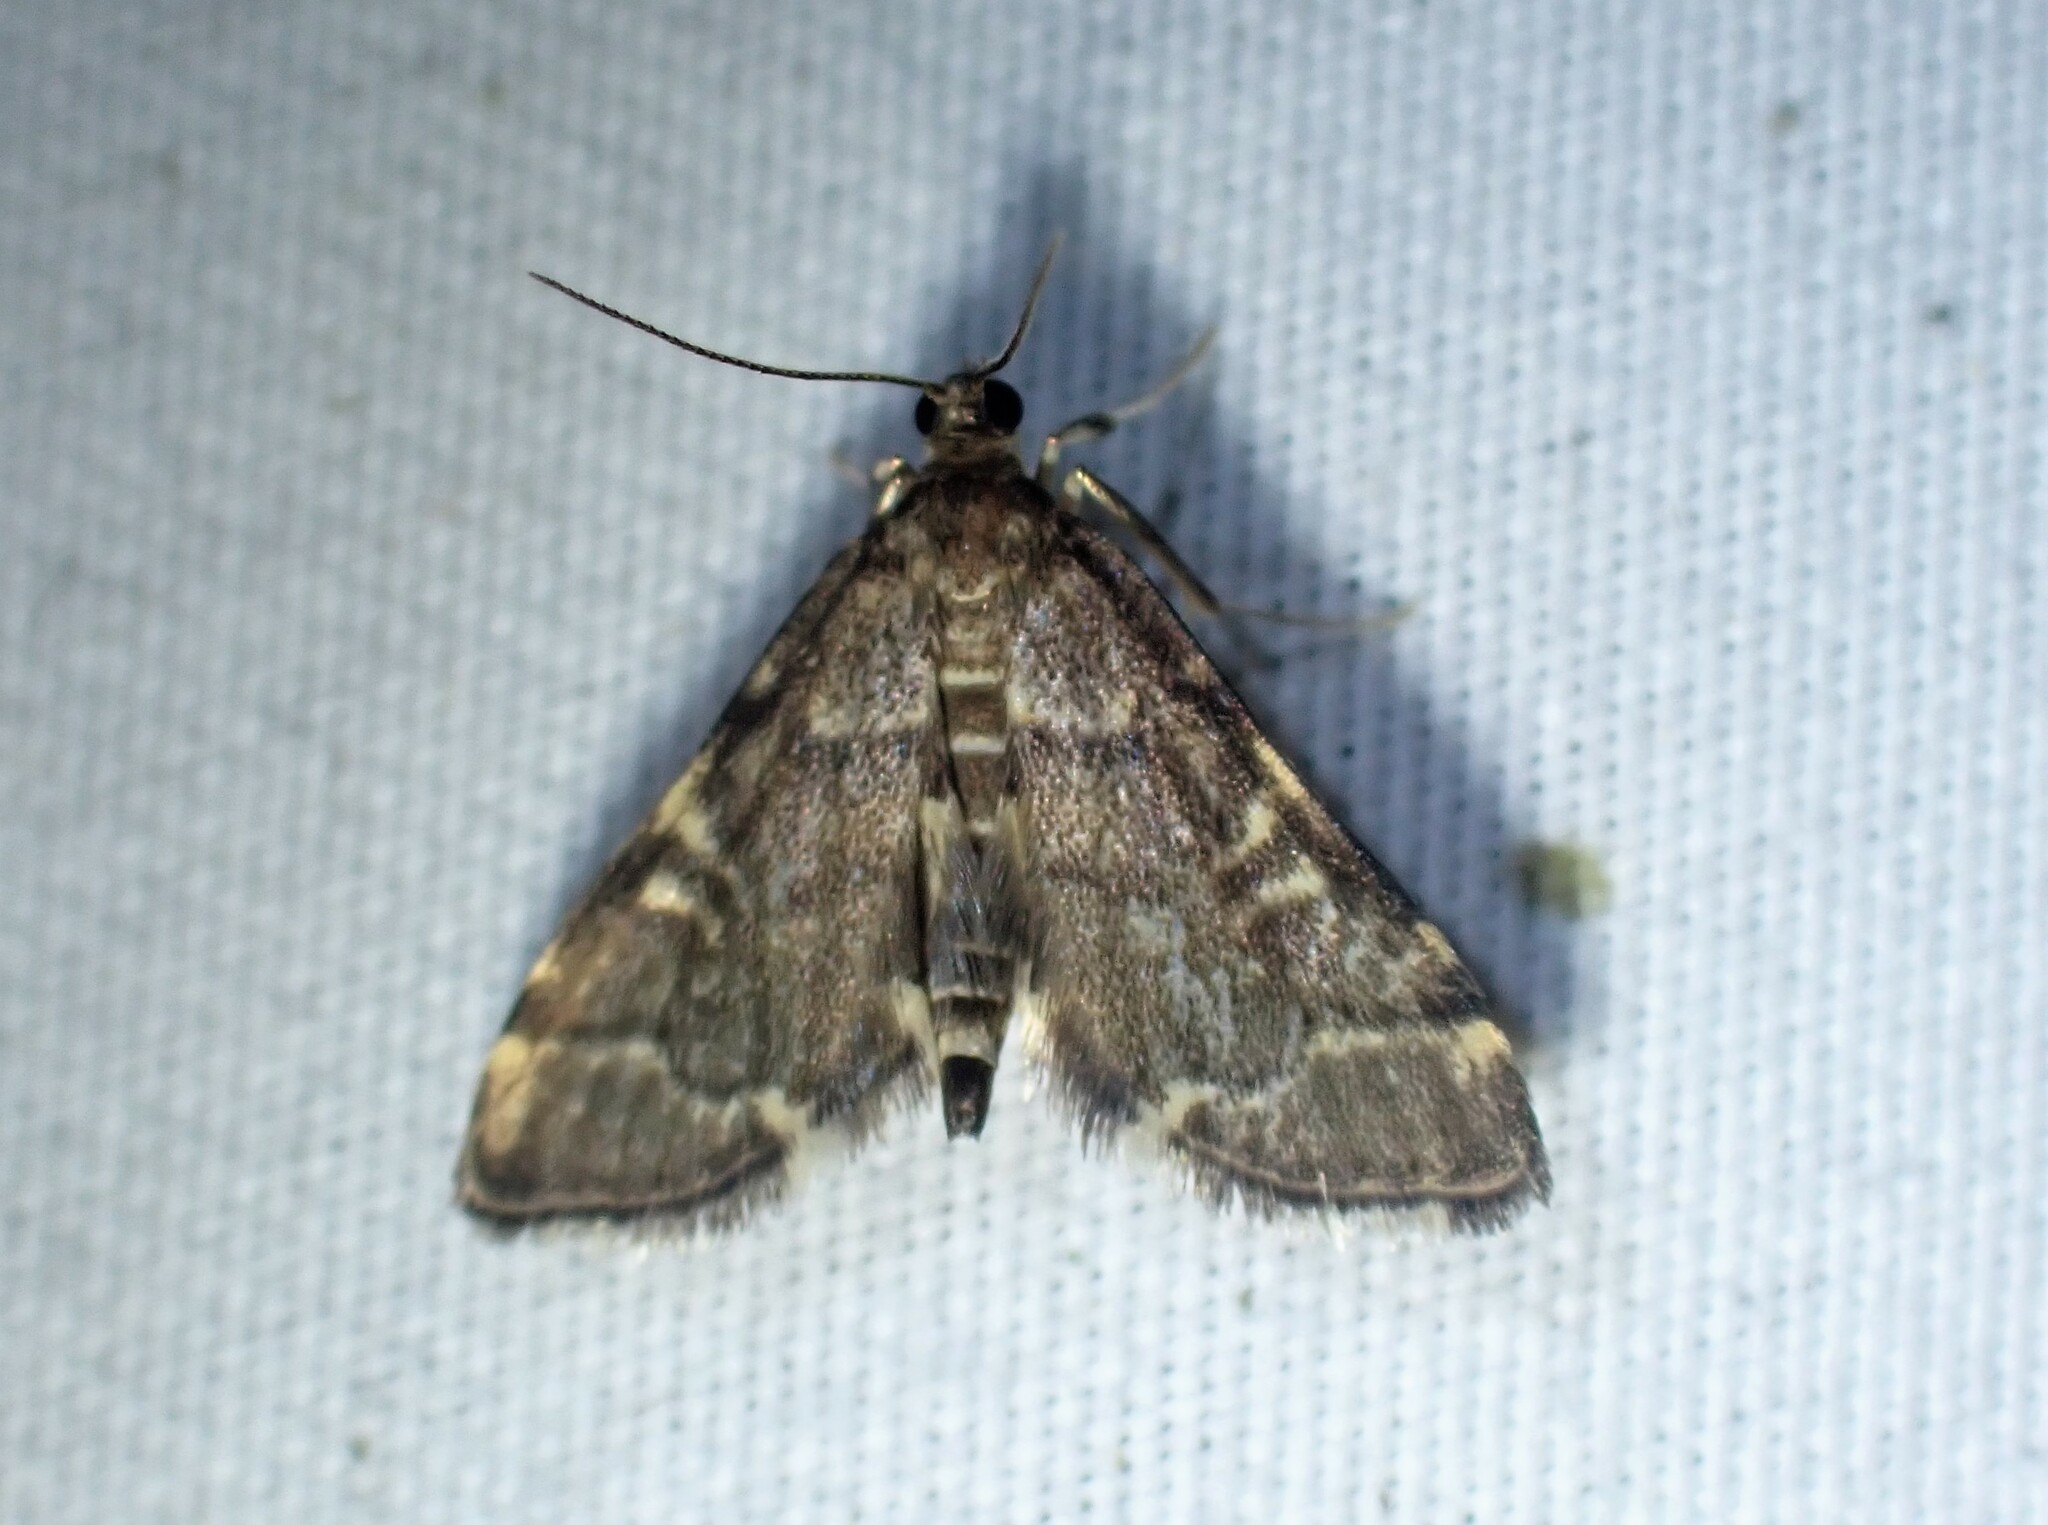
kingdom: Animalia
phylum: Arthropoda
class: Insecta
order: Lepidoptera
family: Crambidae
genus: Anageshna
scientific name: Anageshna primordialis
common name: Yellow-spotted webworm moth
